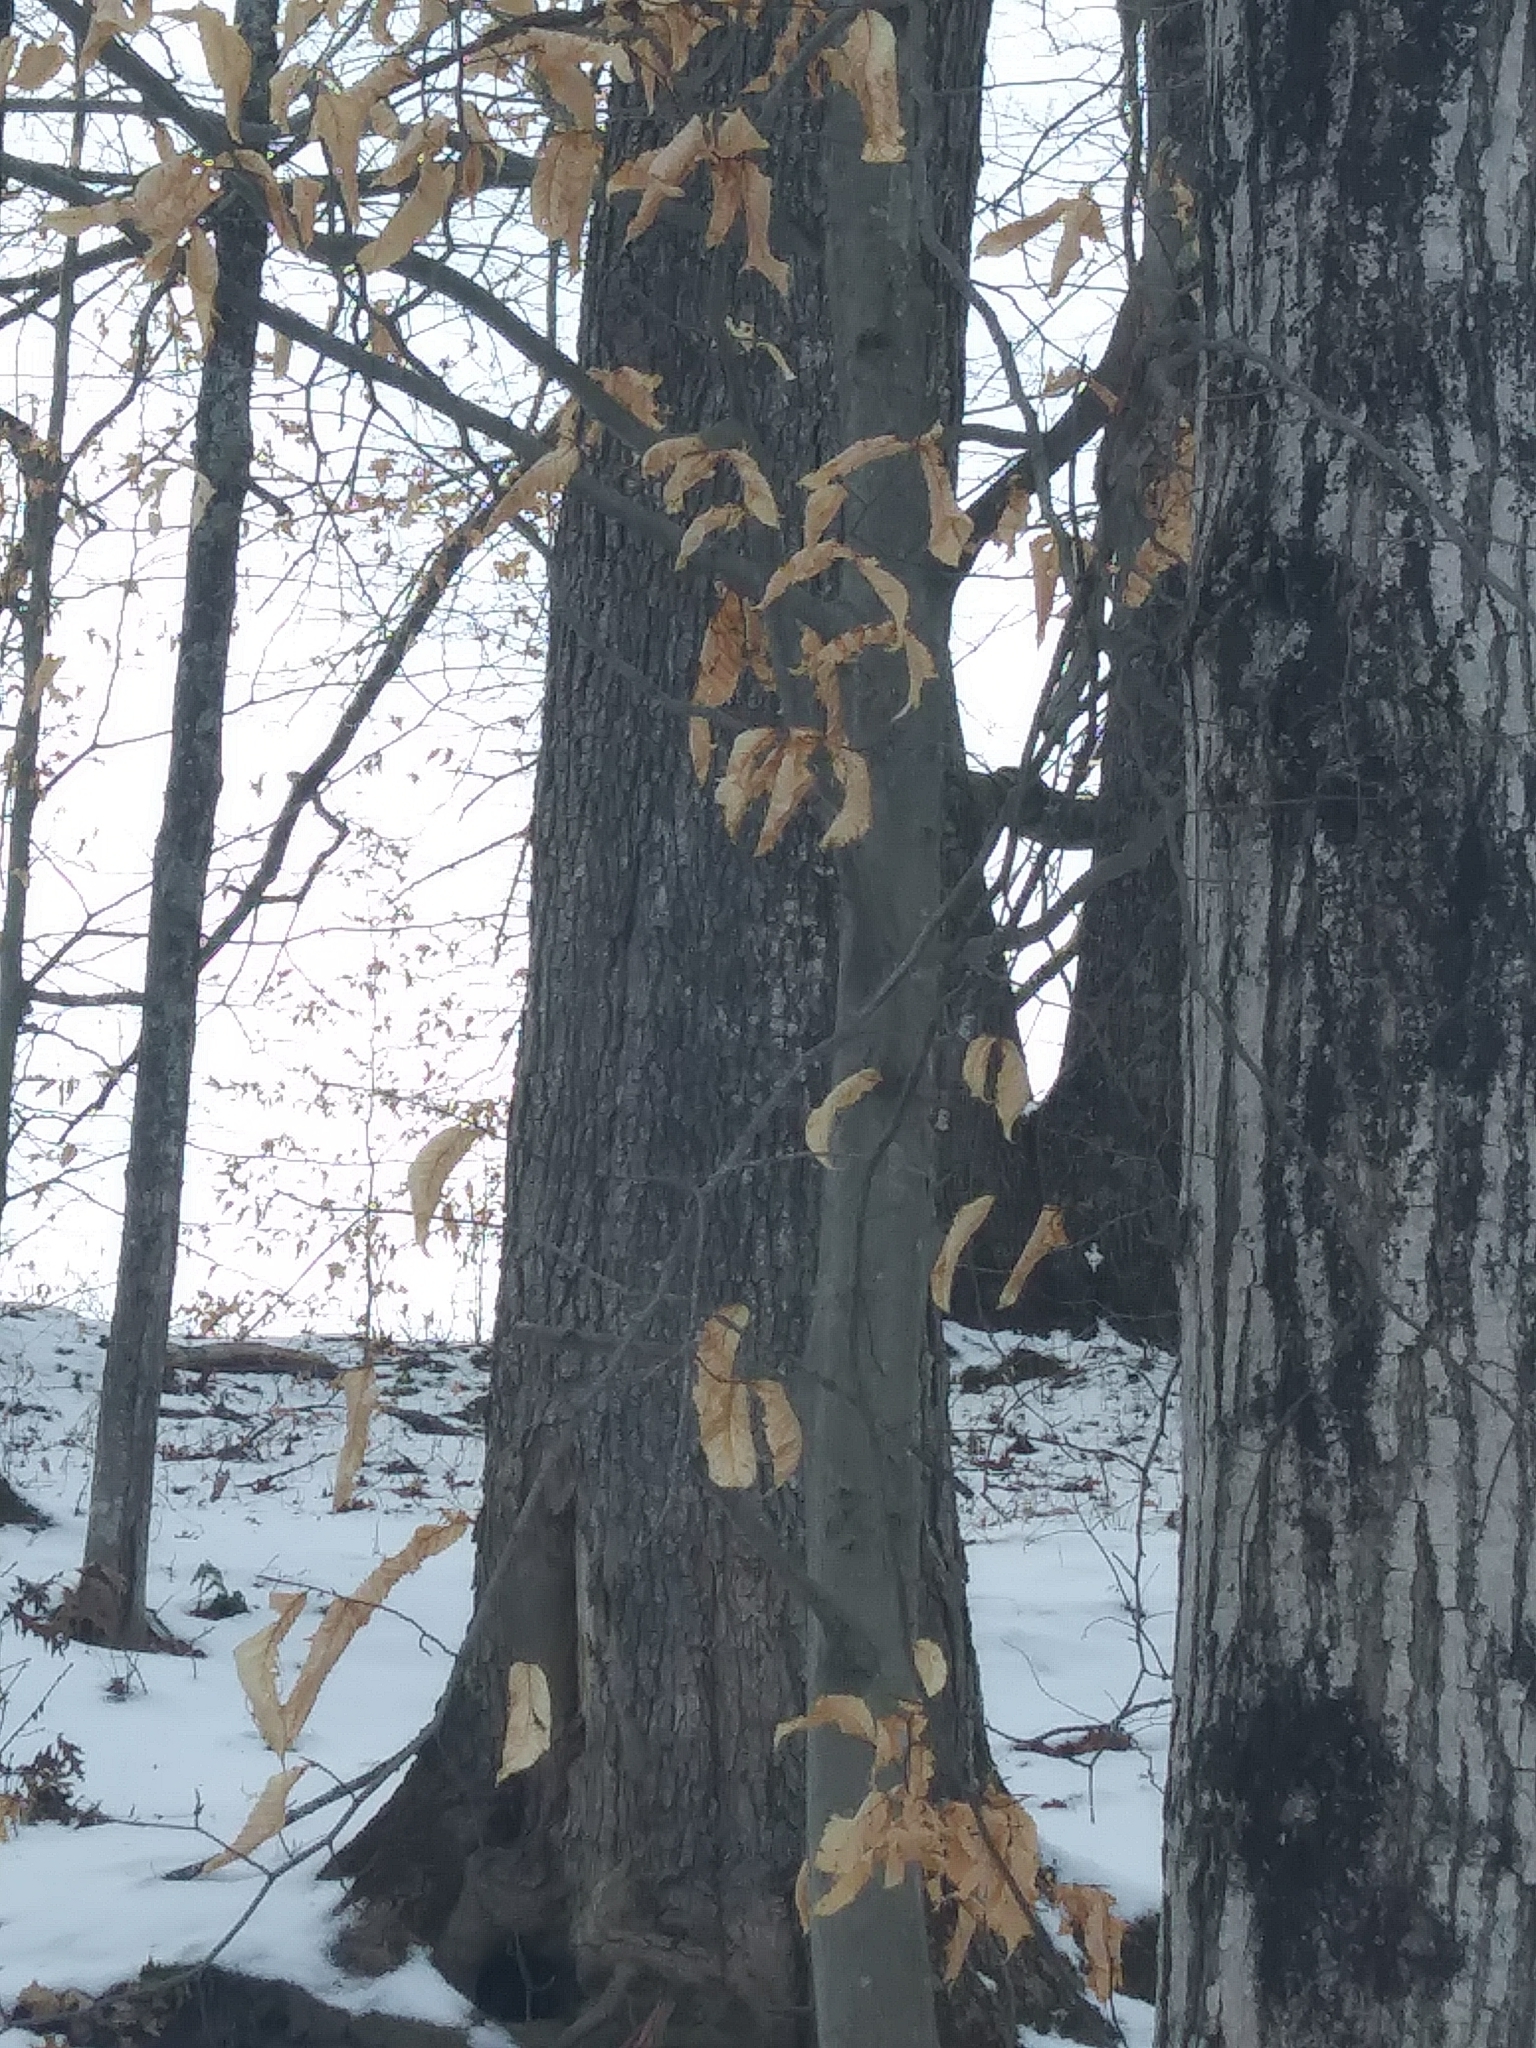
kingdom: Plantae
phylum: Tracheophyta
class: Magnoliopsida
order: Fagales
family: Fagaceae
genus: Fagus
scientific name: Fagus grandifolia
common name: American beech
